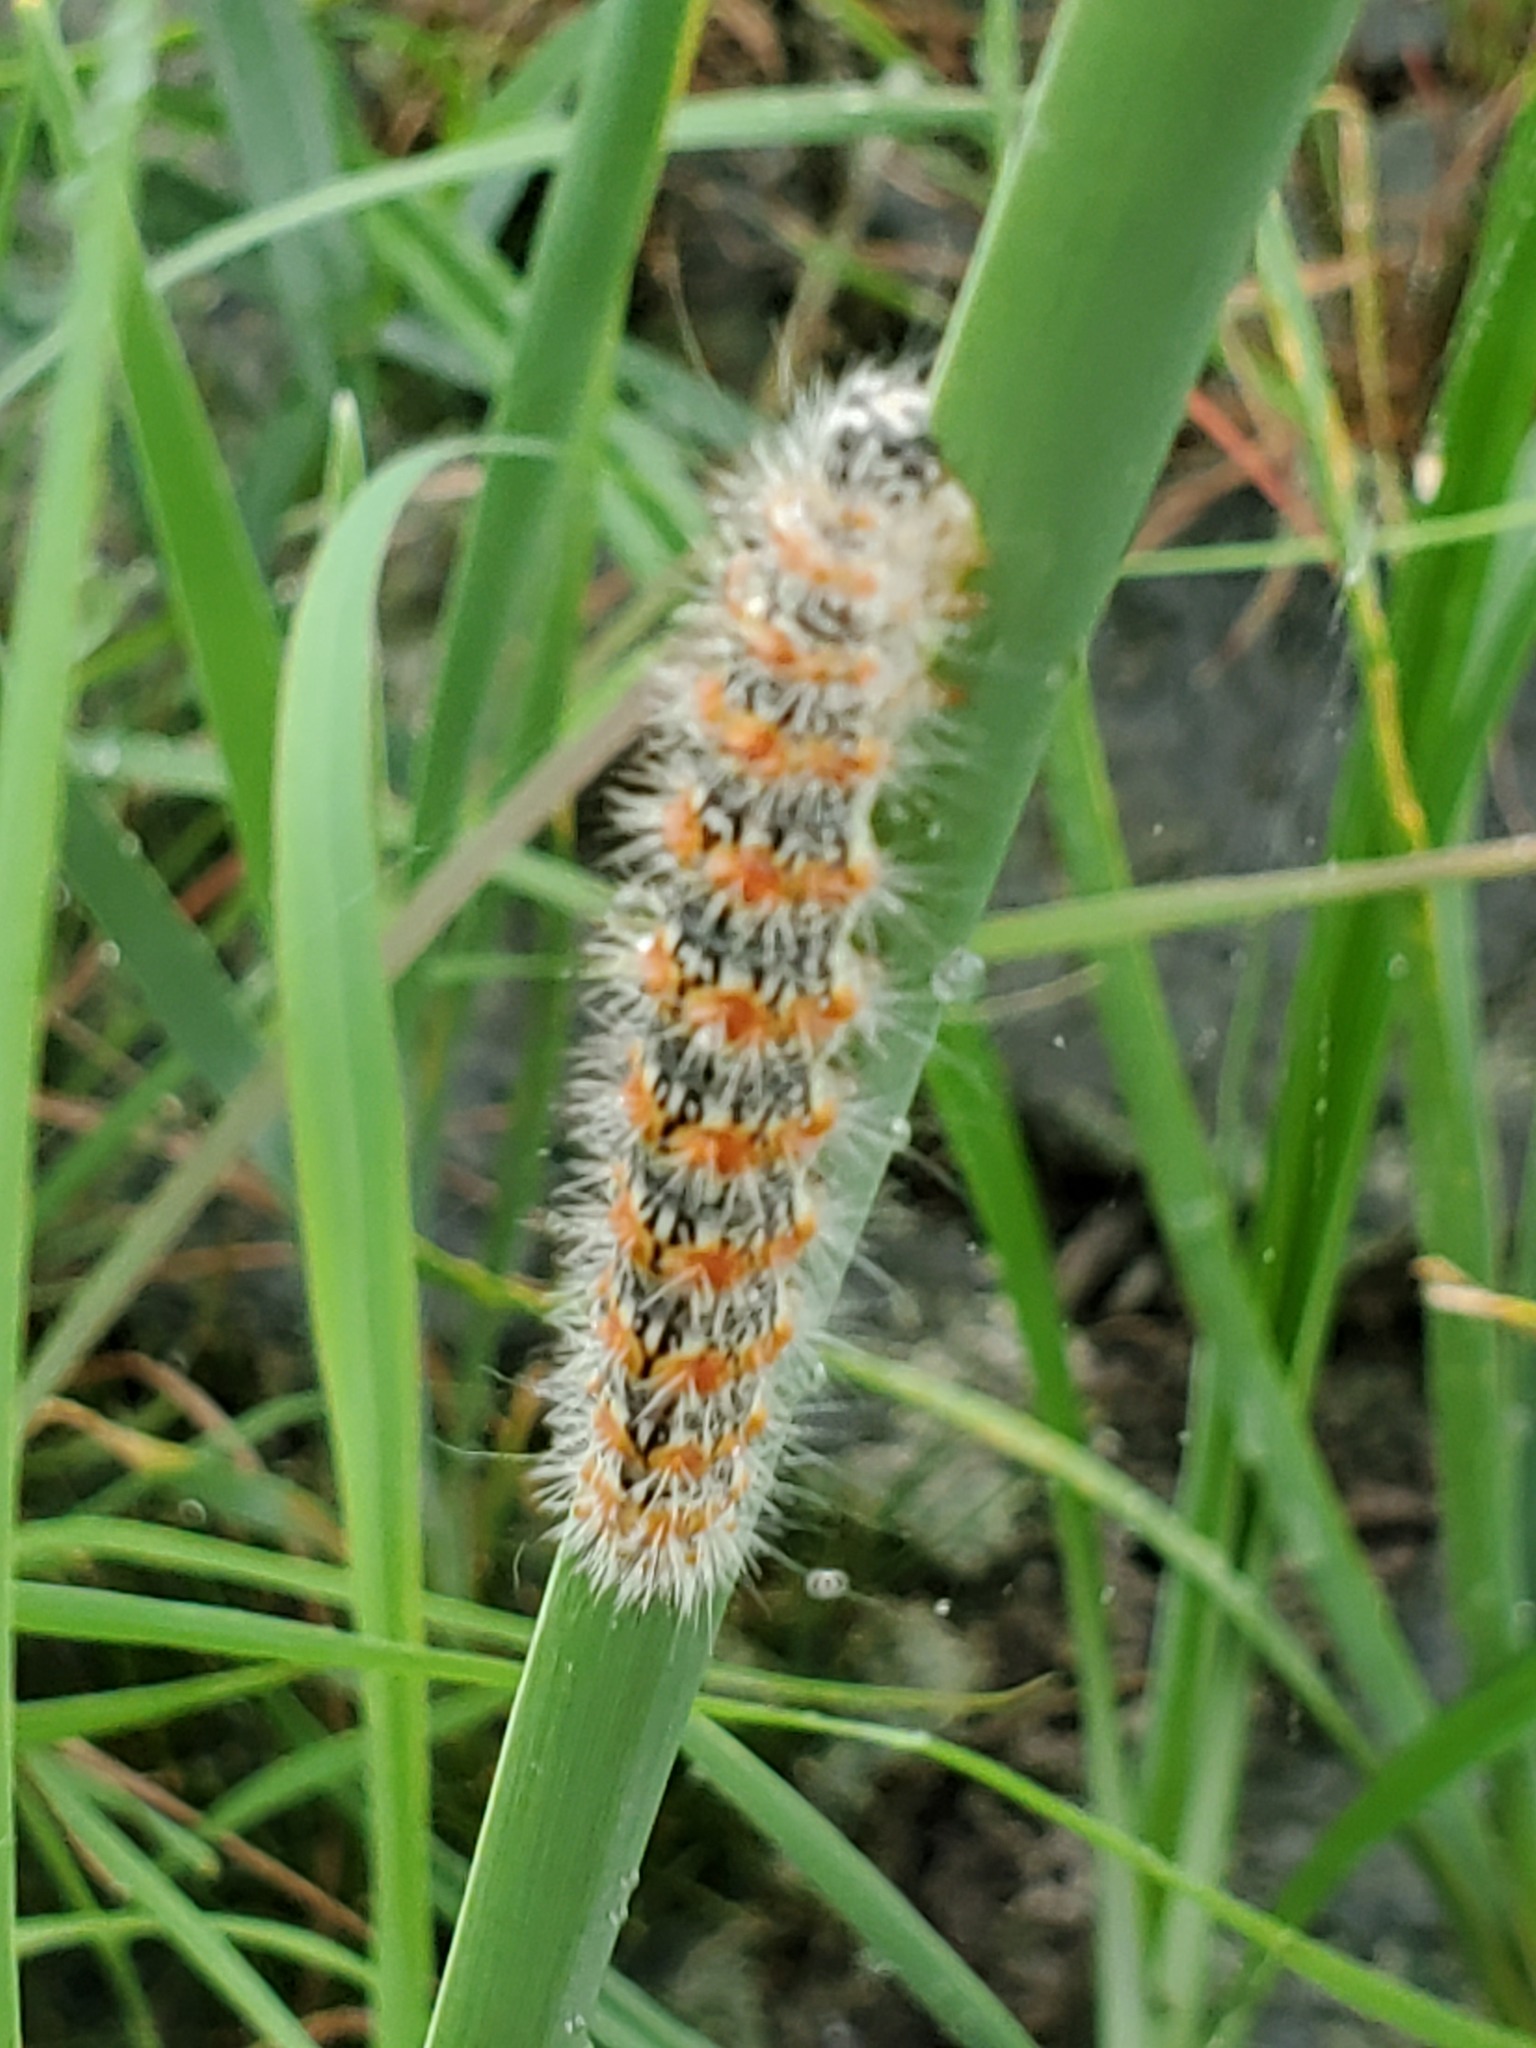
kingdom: Animalia
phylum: Arthropoda
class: Insecta
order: Lepidoptera
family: Noctuidae
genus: Acronicta
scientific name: Acronicta insularis
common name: Henry's marsh moth
